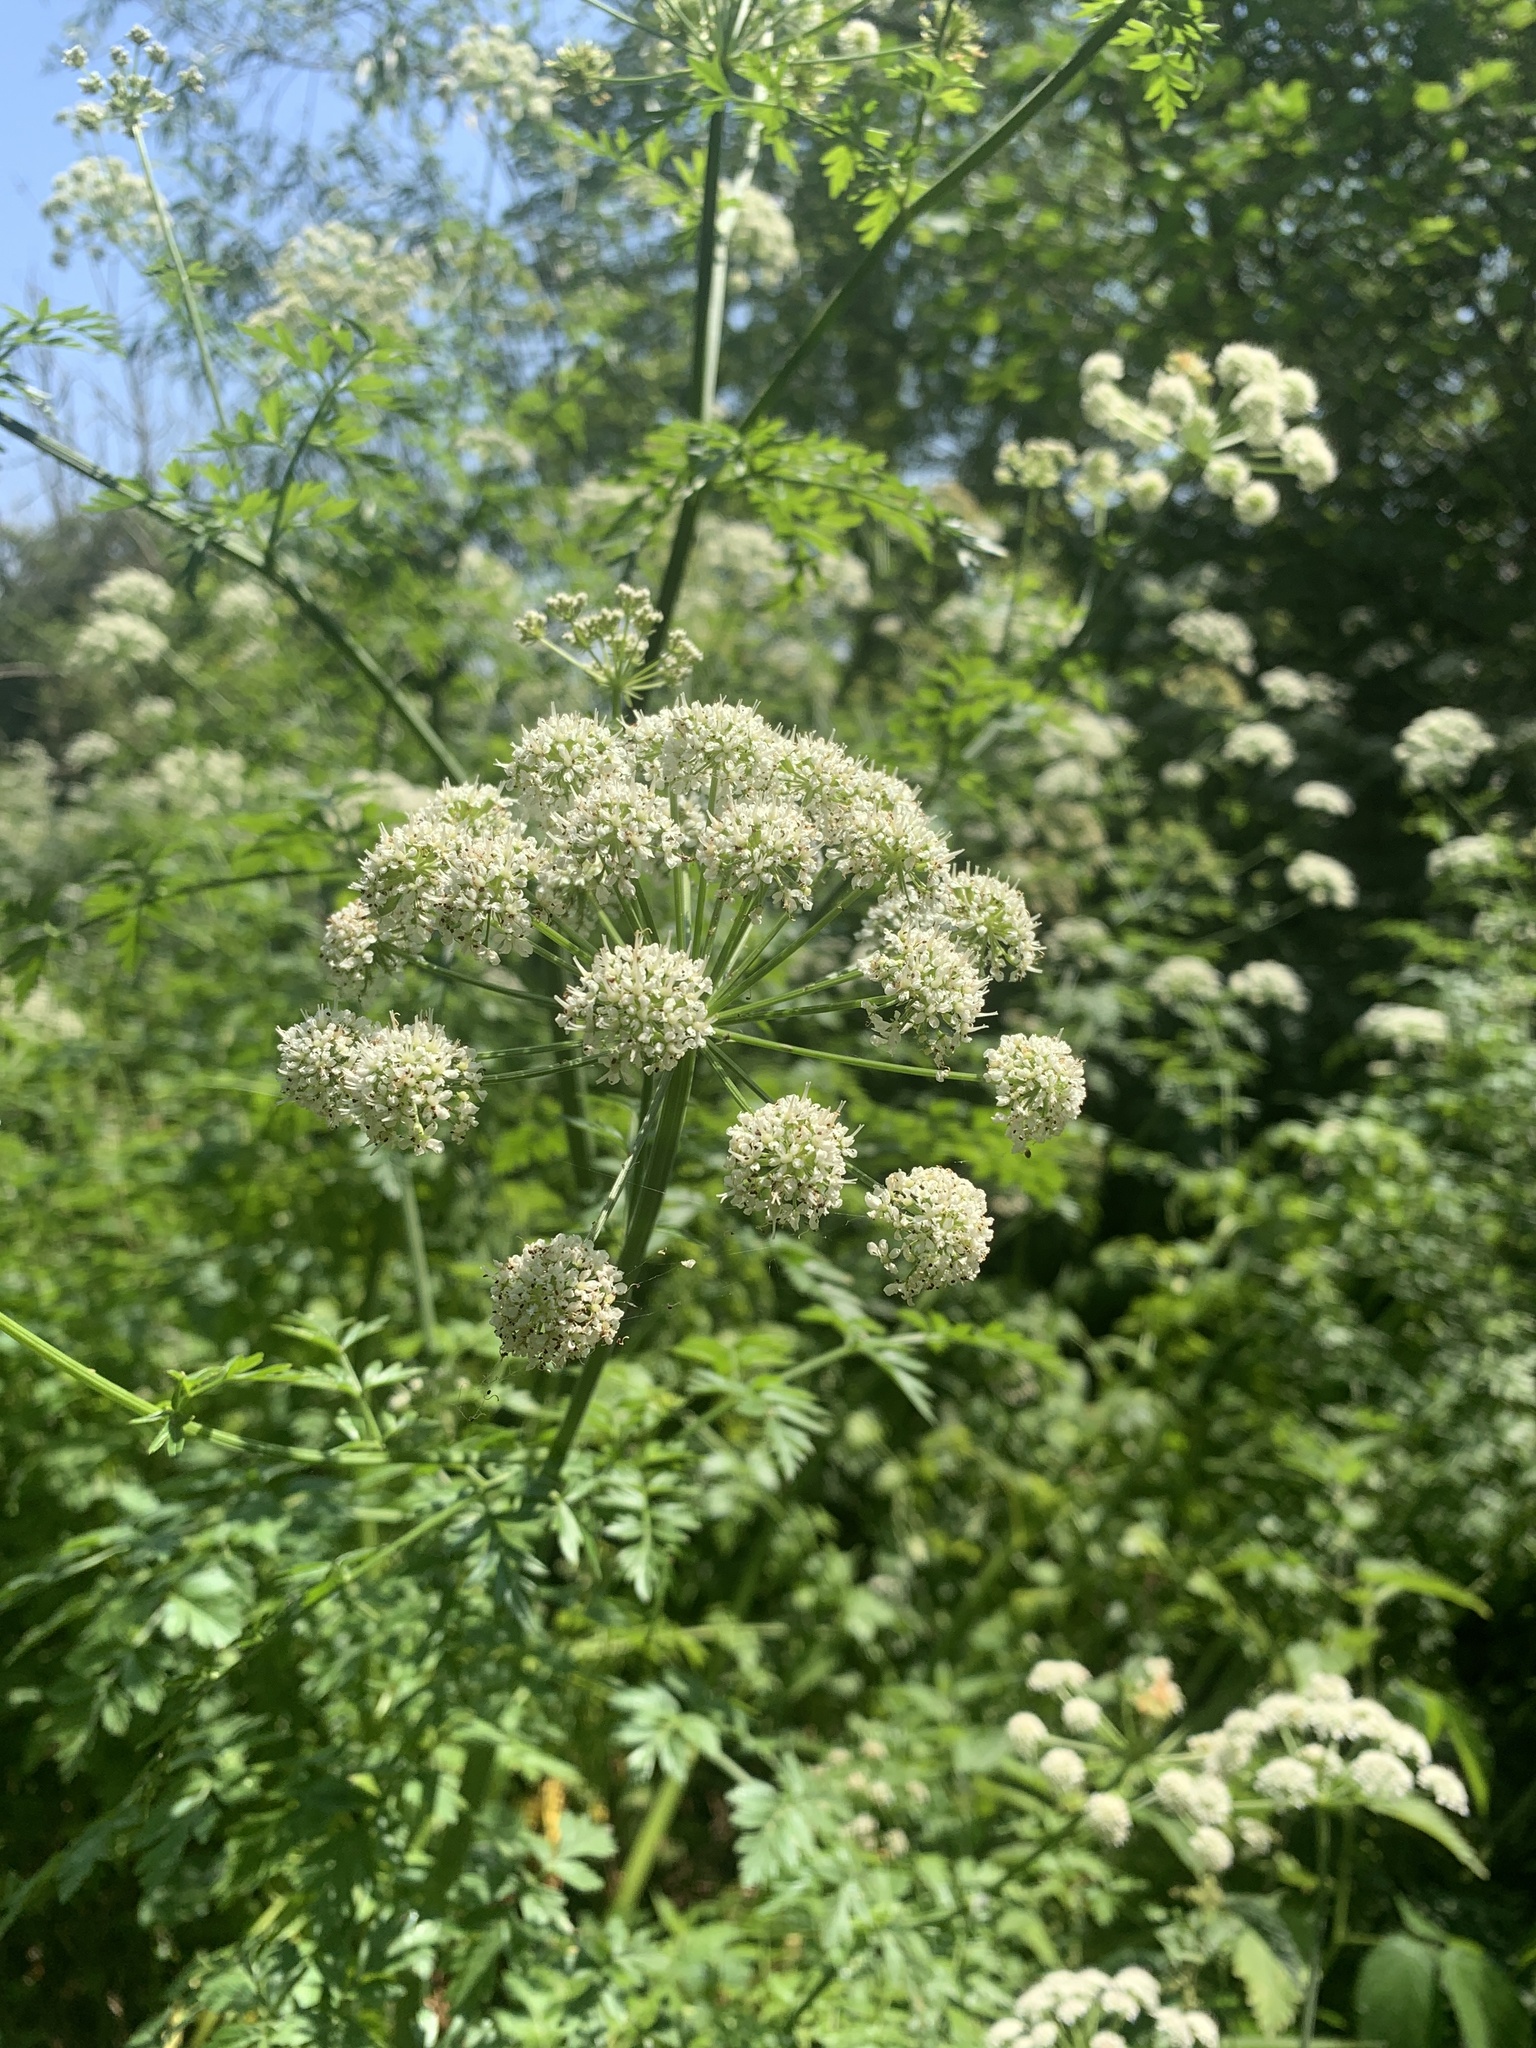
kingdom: Plantae
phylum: Tracheophyta
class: Magnoliopsida
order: Apiales
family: Apiaceae
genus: Oenanthe
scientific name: Oenanthe crocata
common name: Hemlock water-dropwort
